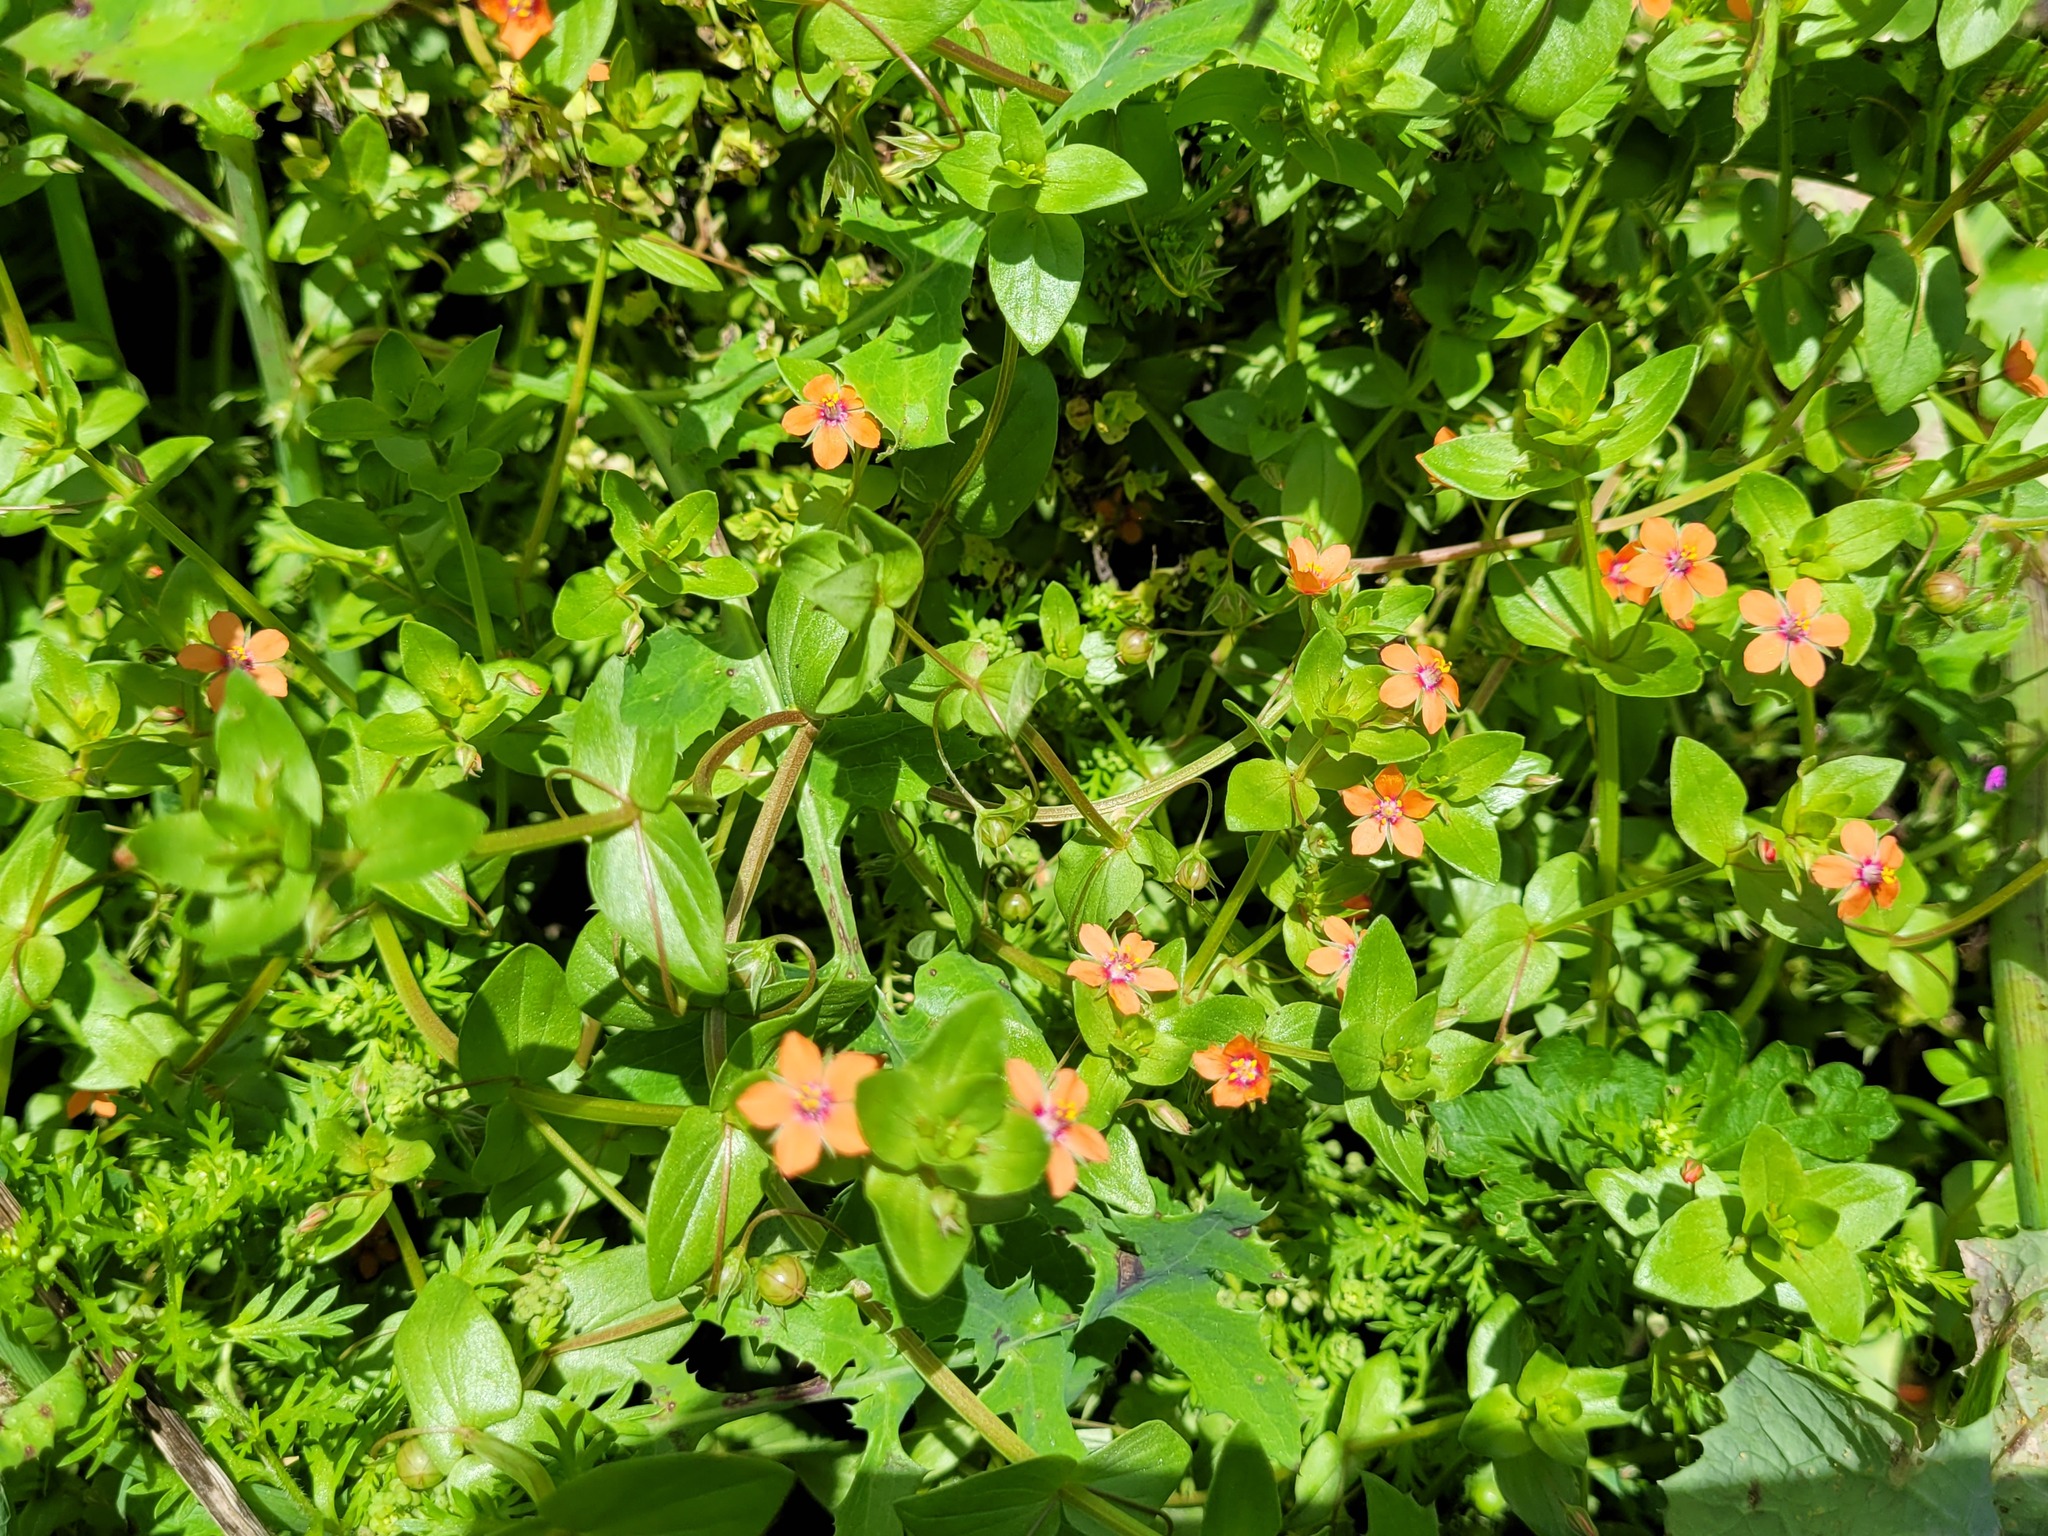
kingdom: Plantae
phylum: Tracheophyta
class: Magnoliopsida
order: Ericales
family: Primulaceae
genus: Lysimachia
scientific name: Lysimachia arvensis
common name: Scarlet pimpernel
